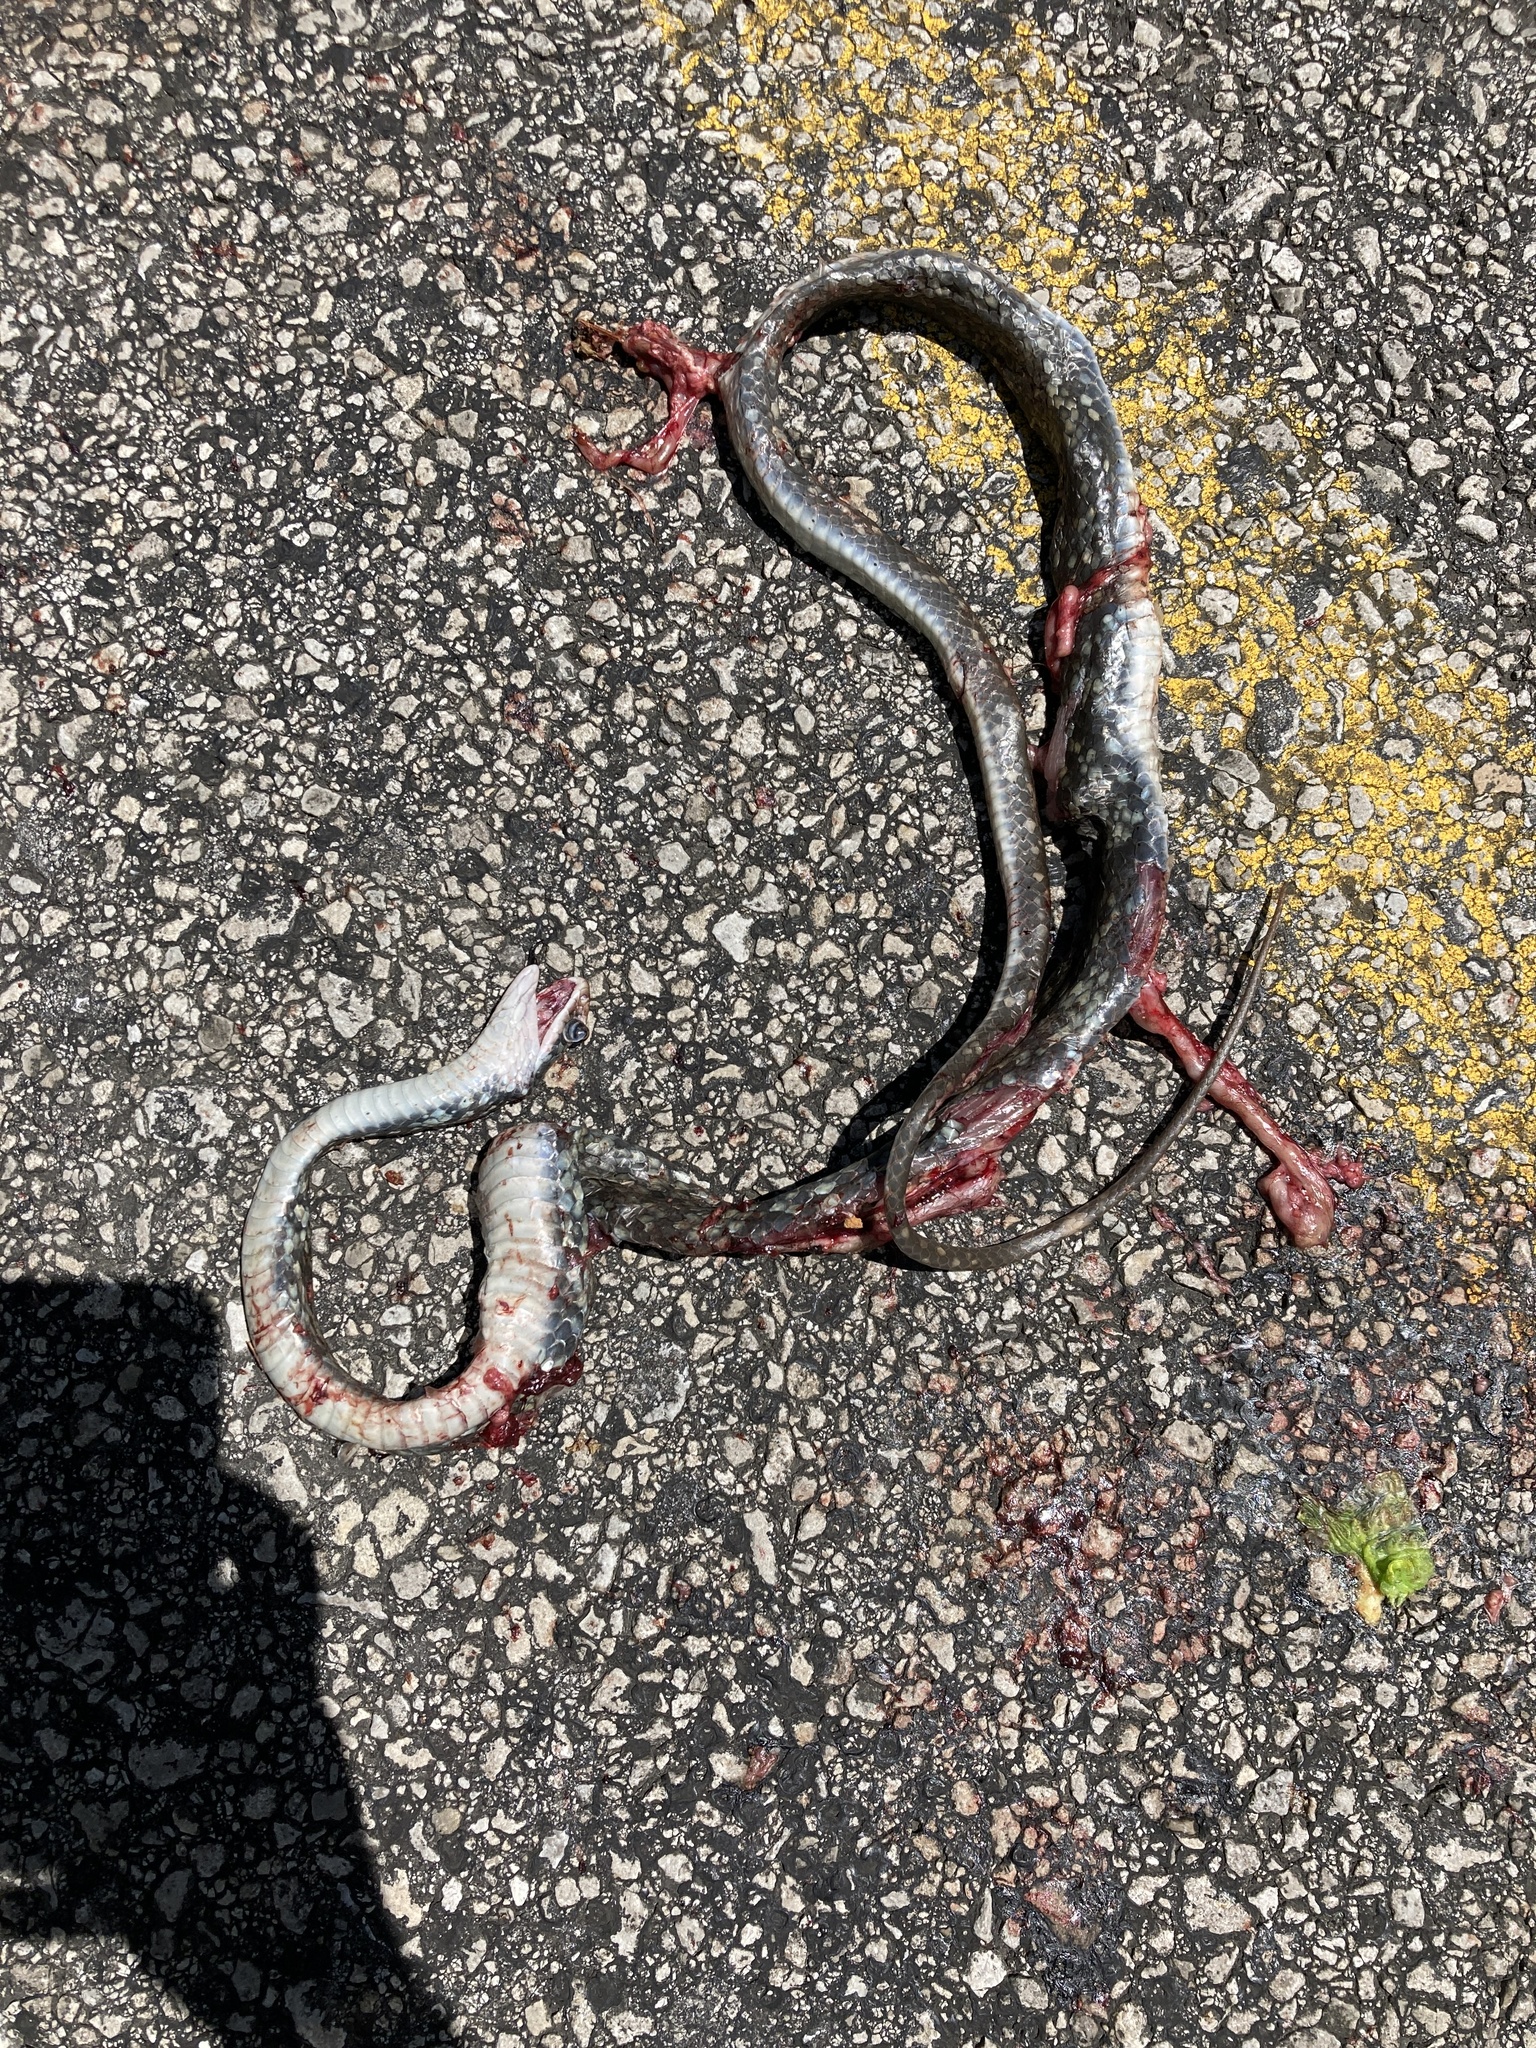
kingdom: Animalia
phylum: Chordata
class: Squamata
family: Colubridae
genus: Coluber
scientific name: Coluber constrictor
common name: Eastern racer
